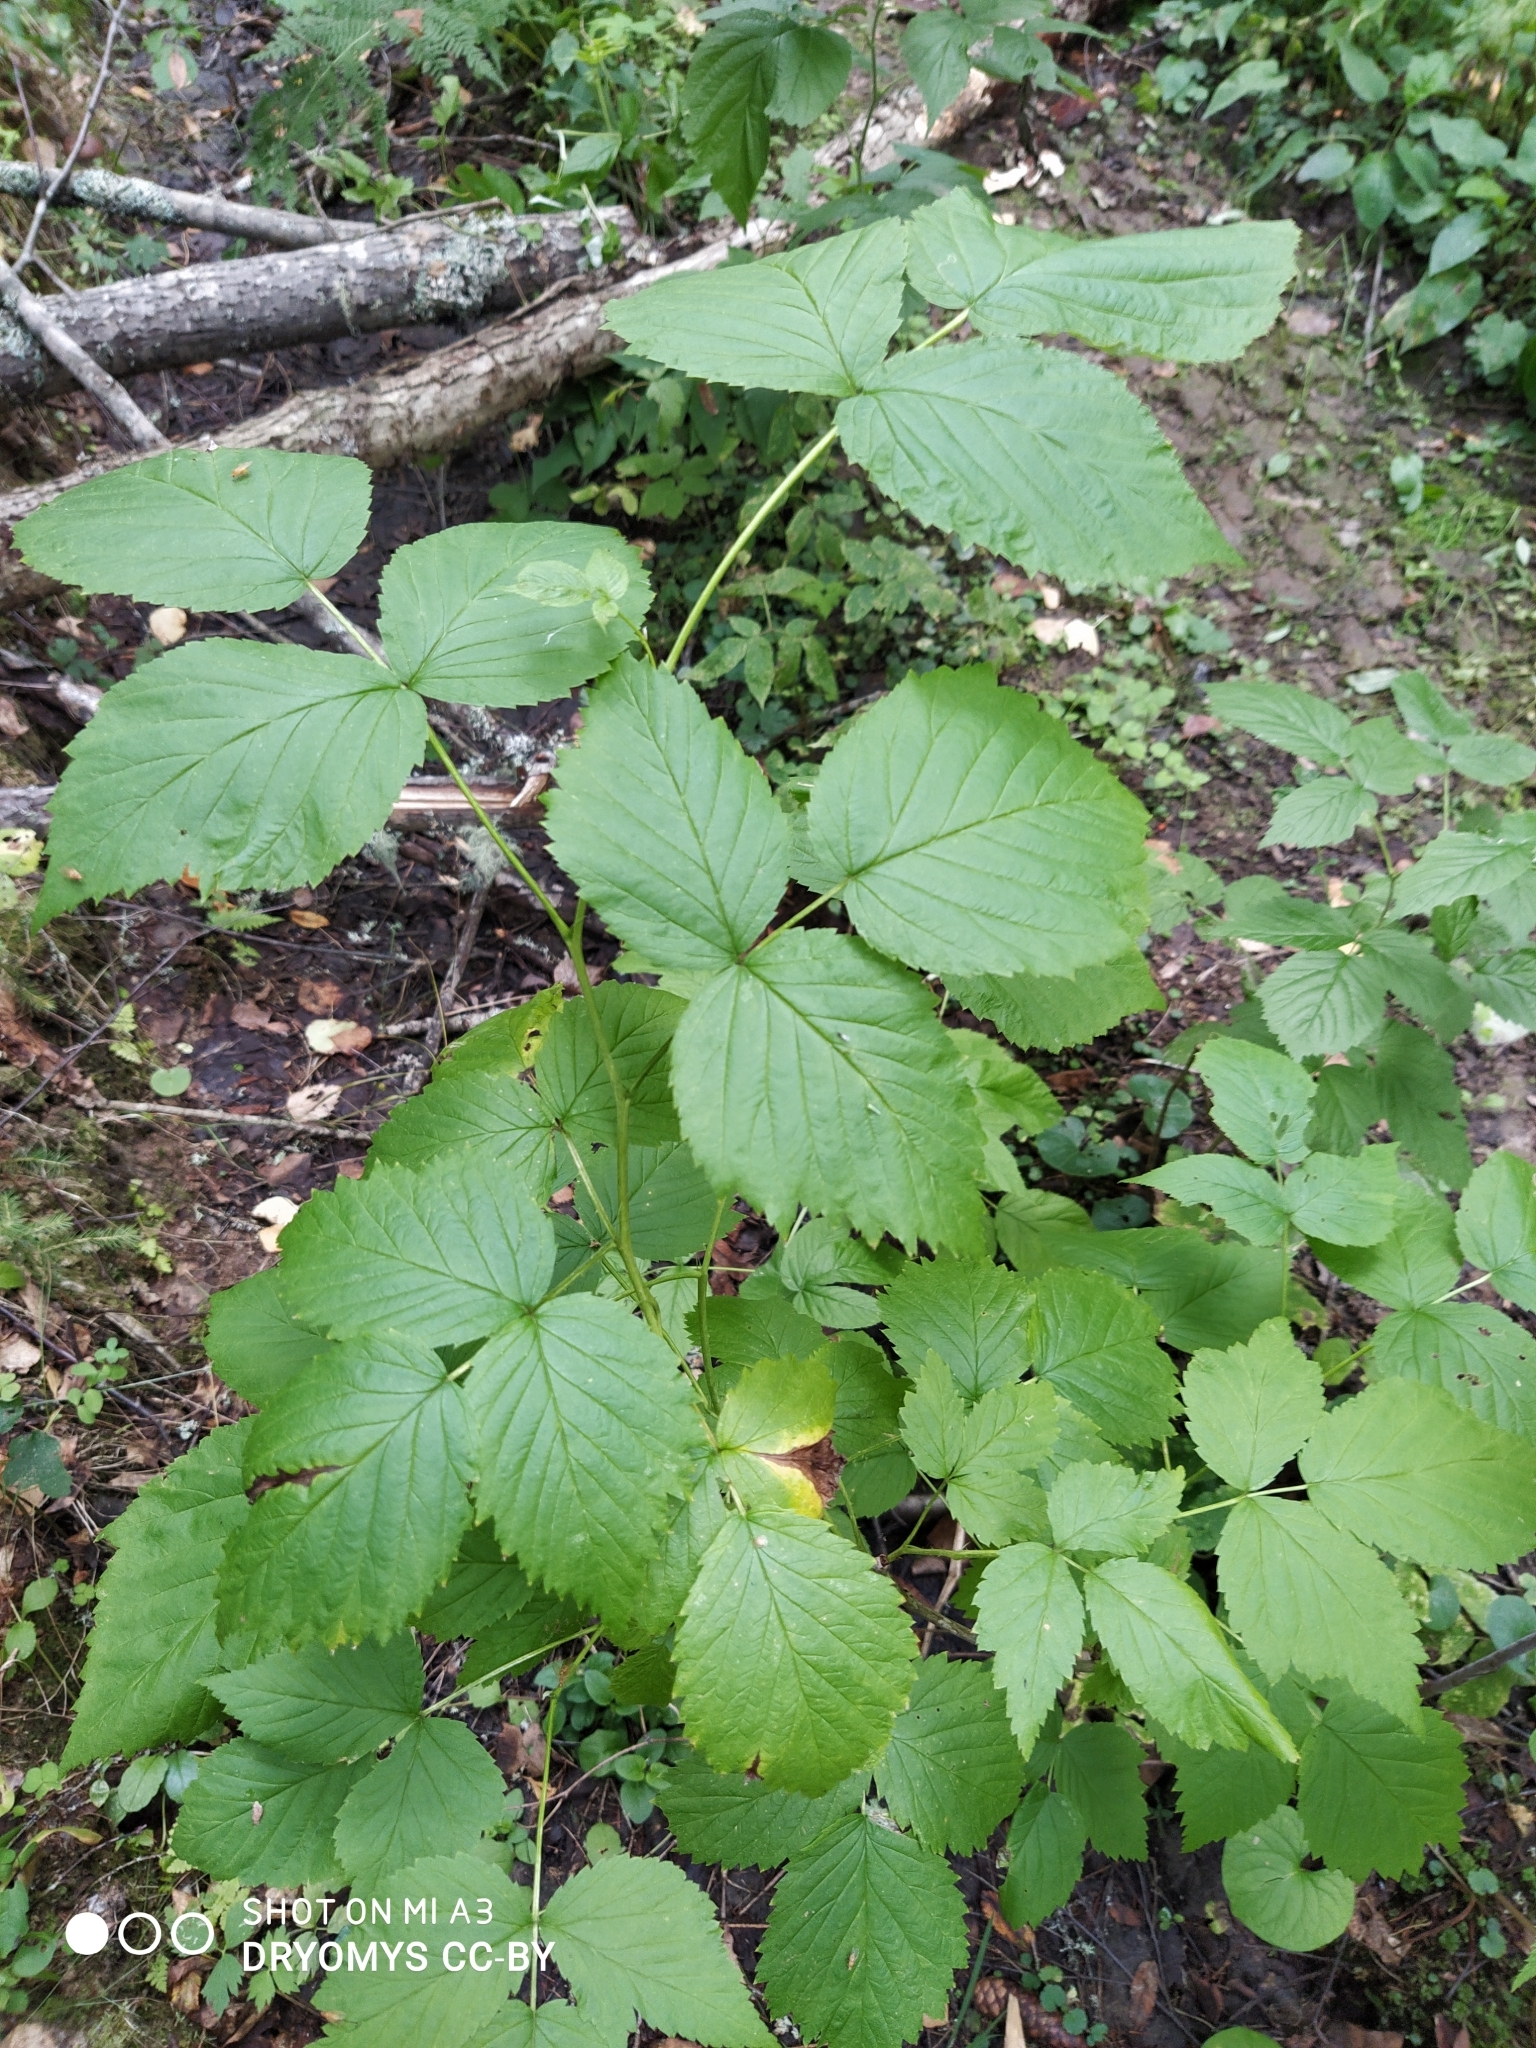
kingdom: Plantae
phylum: Tracheophyta
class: Magnoliopsida
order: Rosales
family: Rosaceae
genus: Rubus
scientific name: Rubus idaeus
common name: Raspberry
